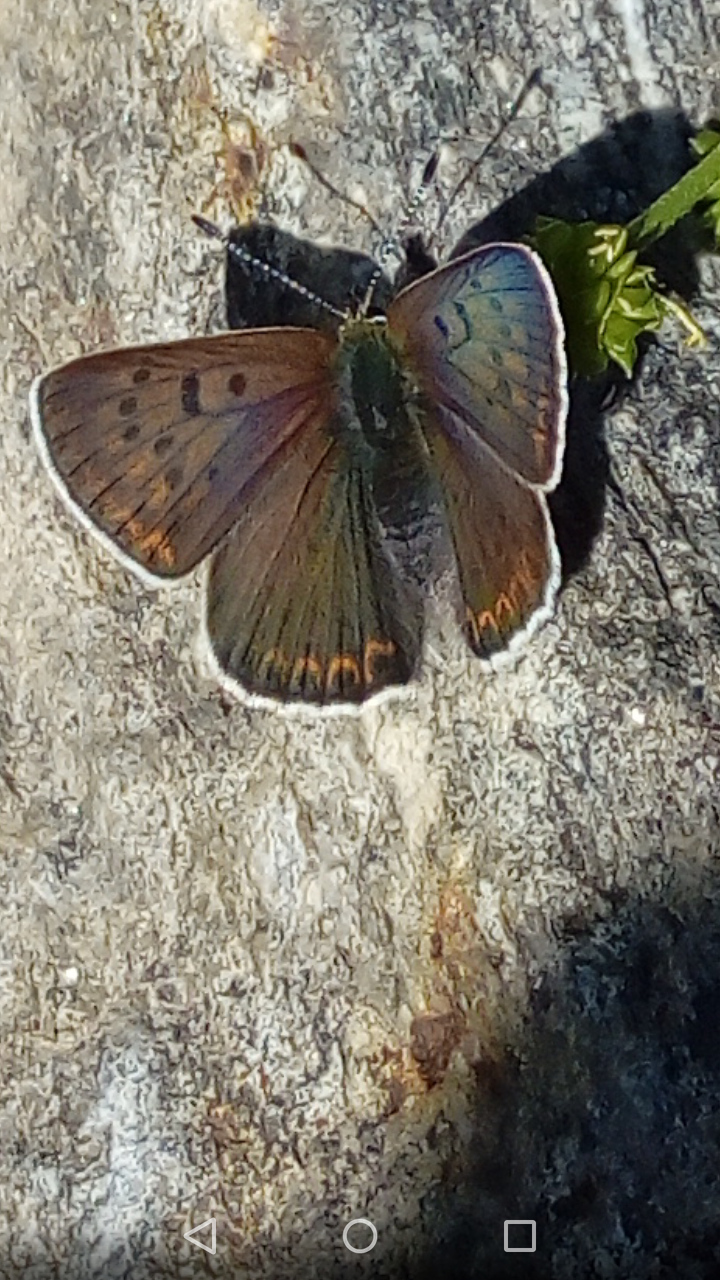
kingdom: Animalia
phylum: Arthropoda
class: Insecta
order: Lepidoptera
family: Lycaenidae
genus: Loweia
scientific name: Loweia tityrus
